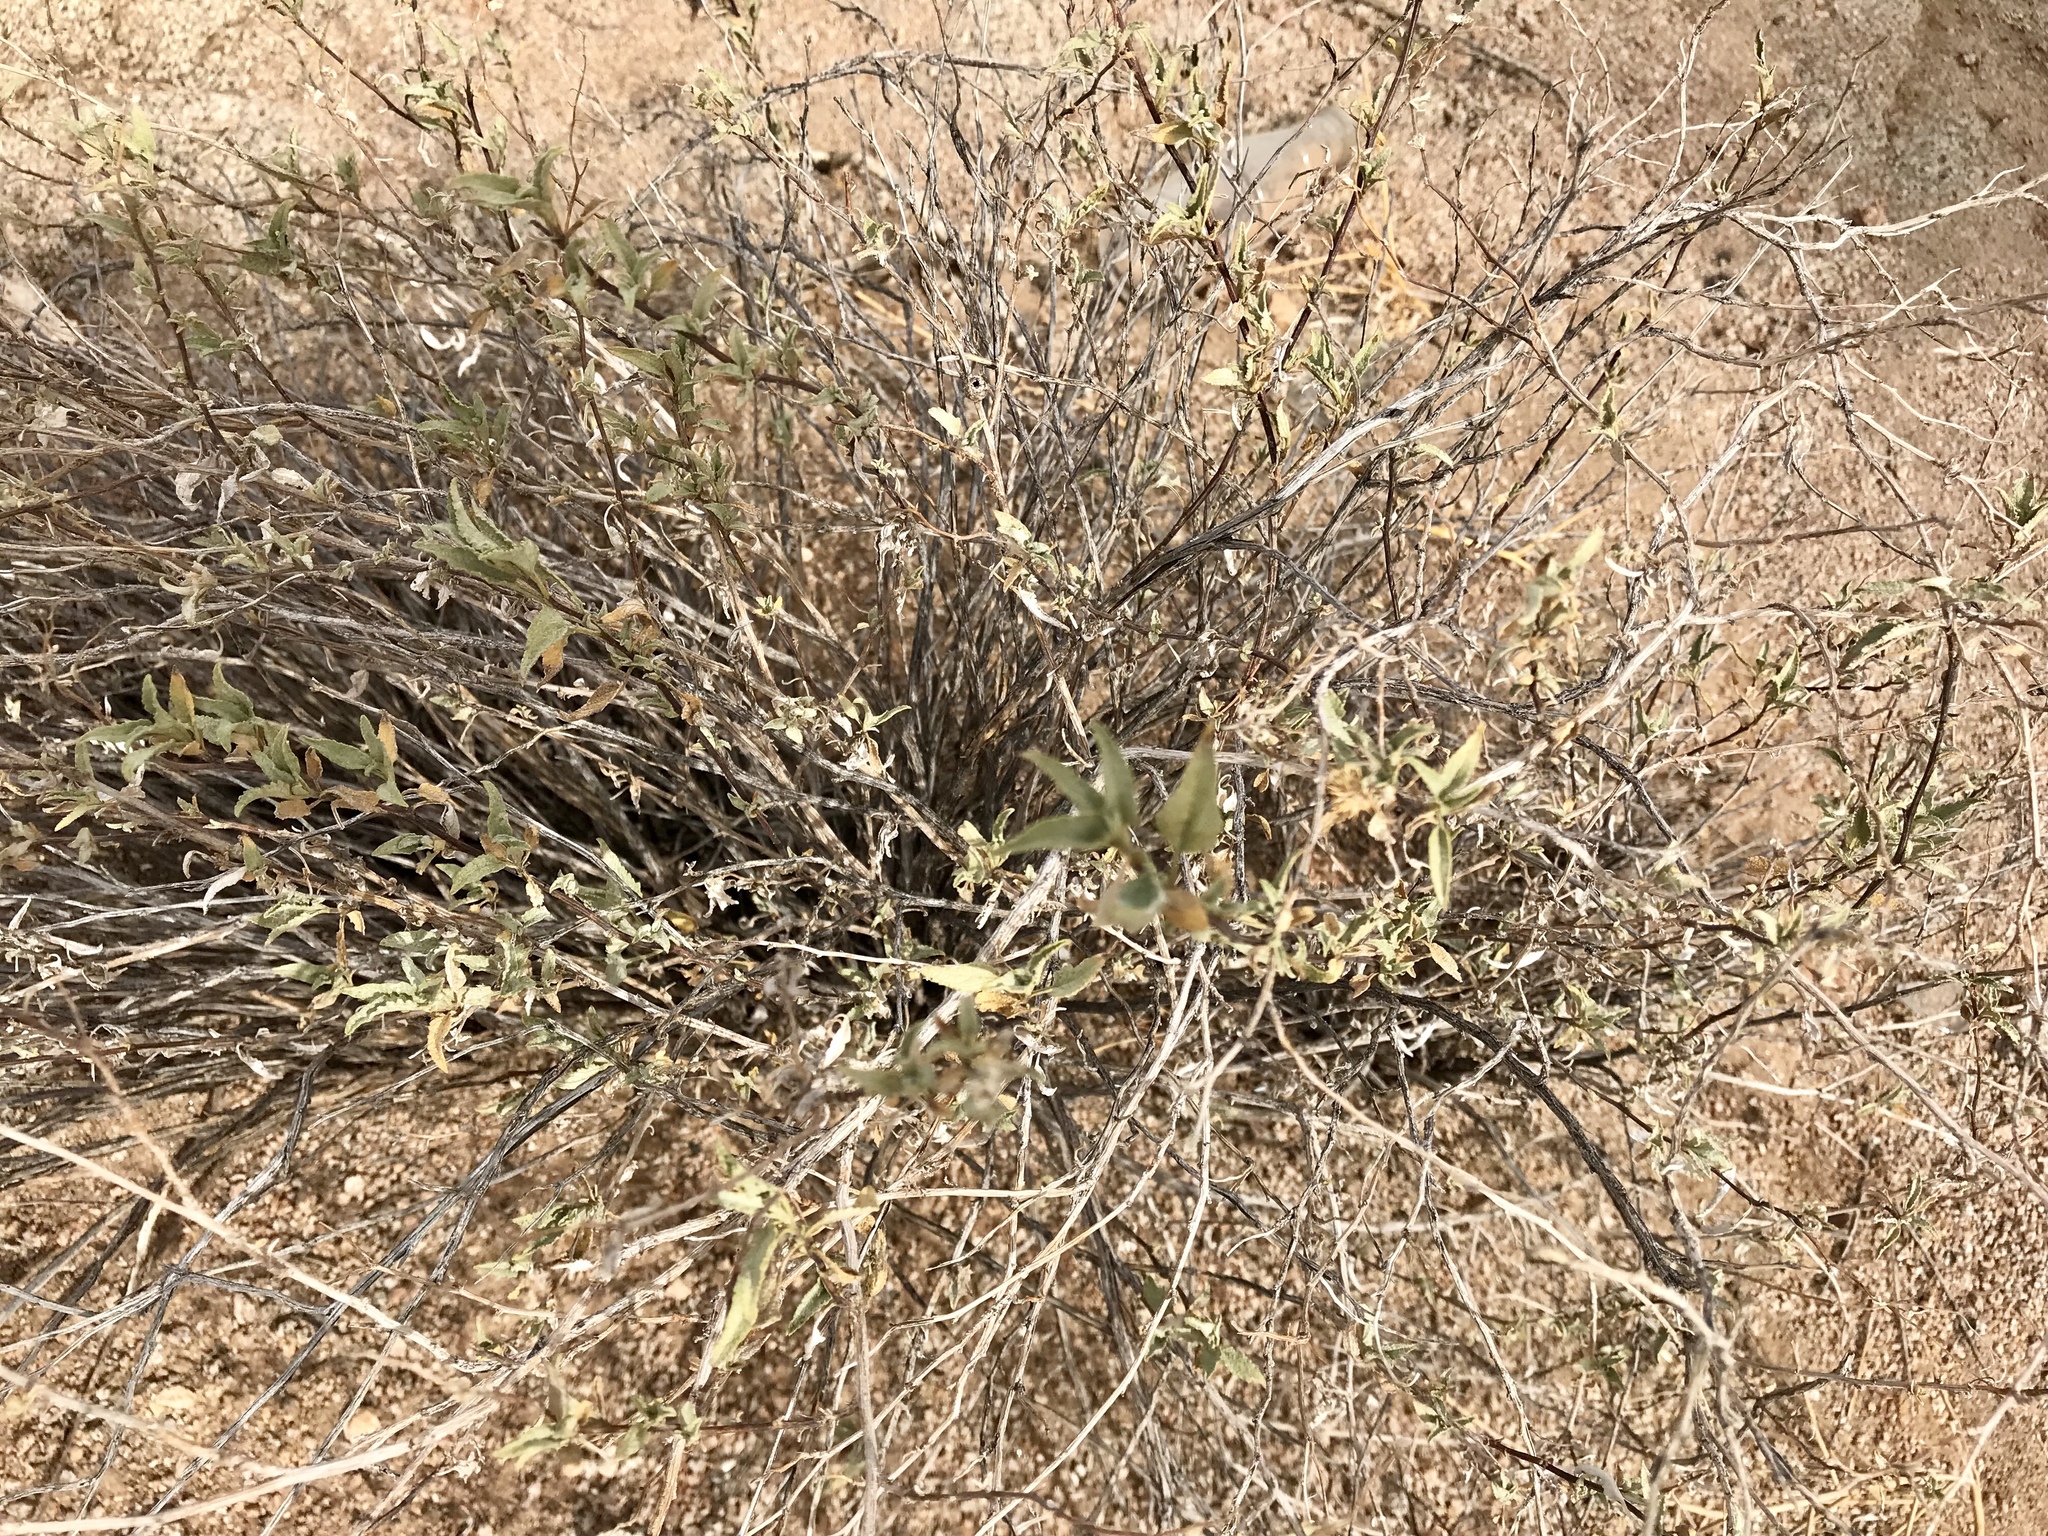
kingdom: Plantae
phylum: Tracheophyta
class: Magnoliopsida
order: Asterales
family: Asteraceae
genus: Encelia
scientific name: Encelia farinosa
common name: Brittlebush
